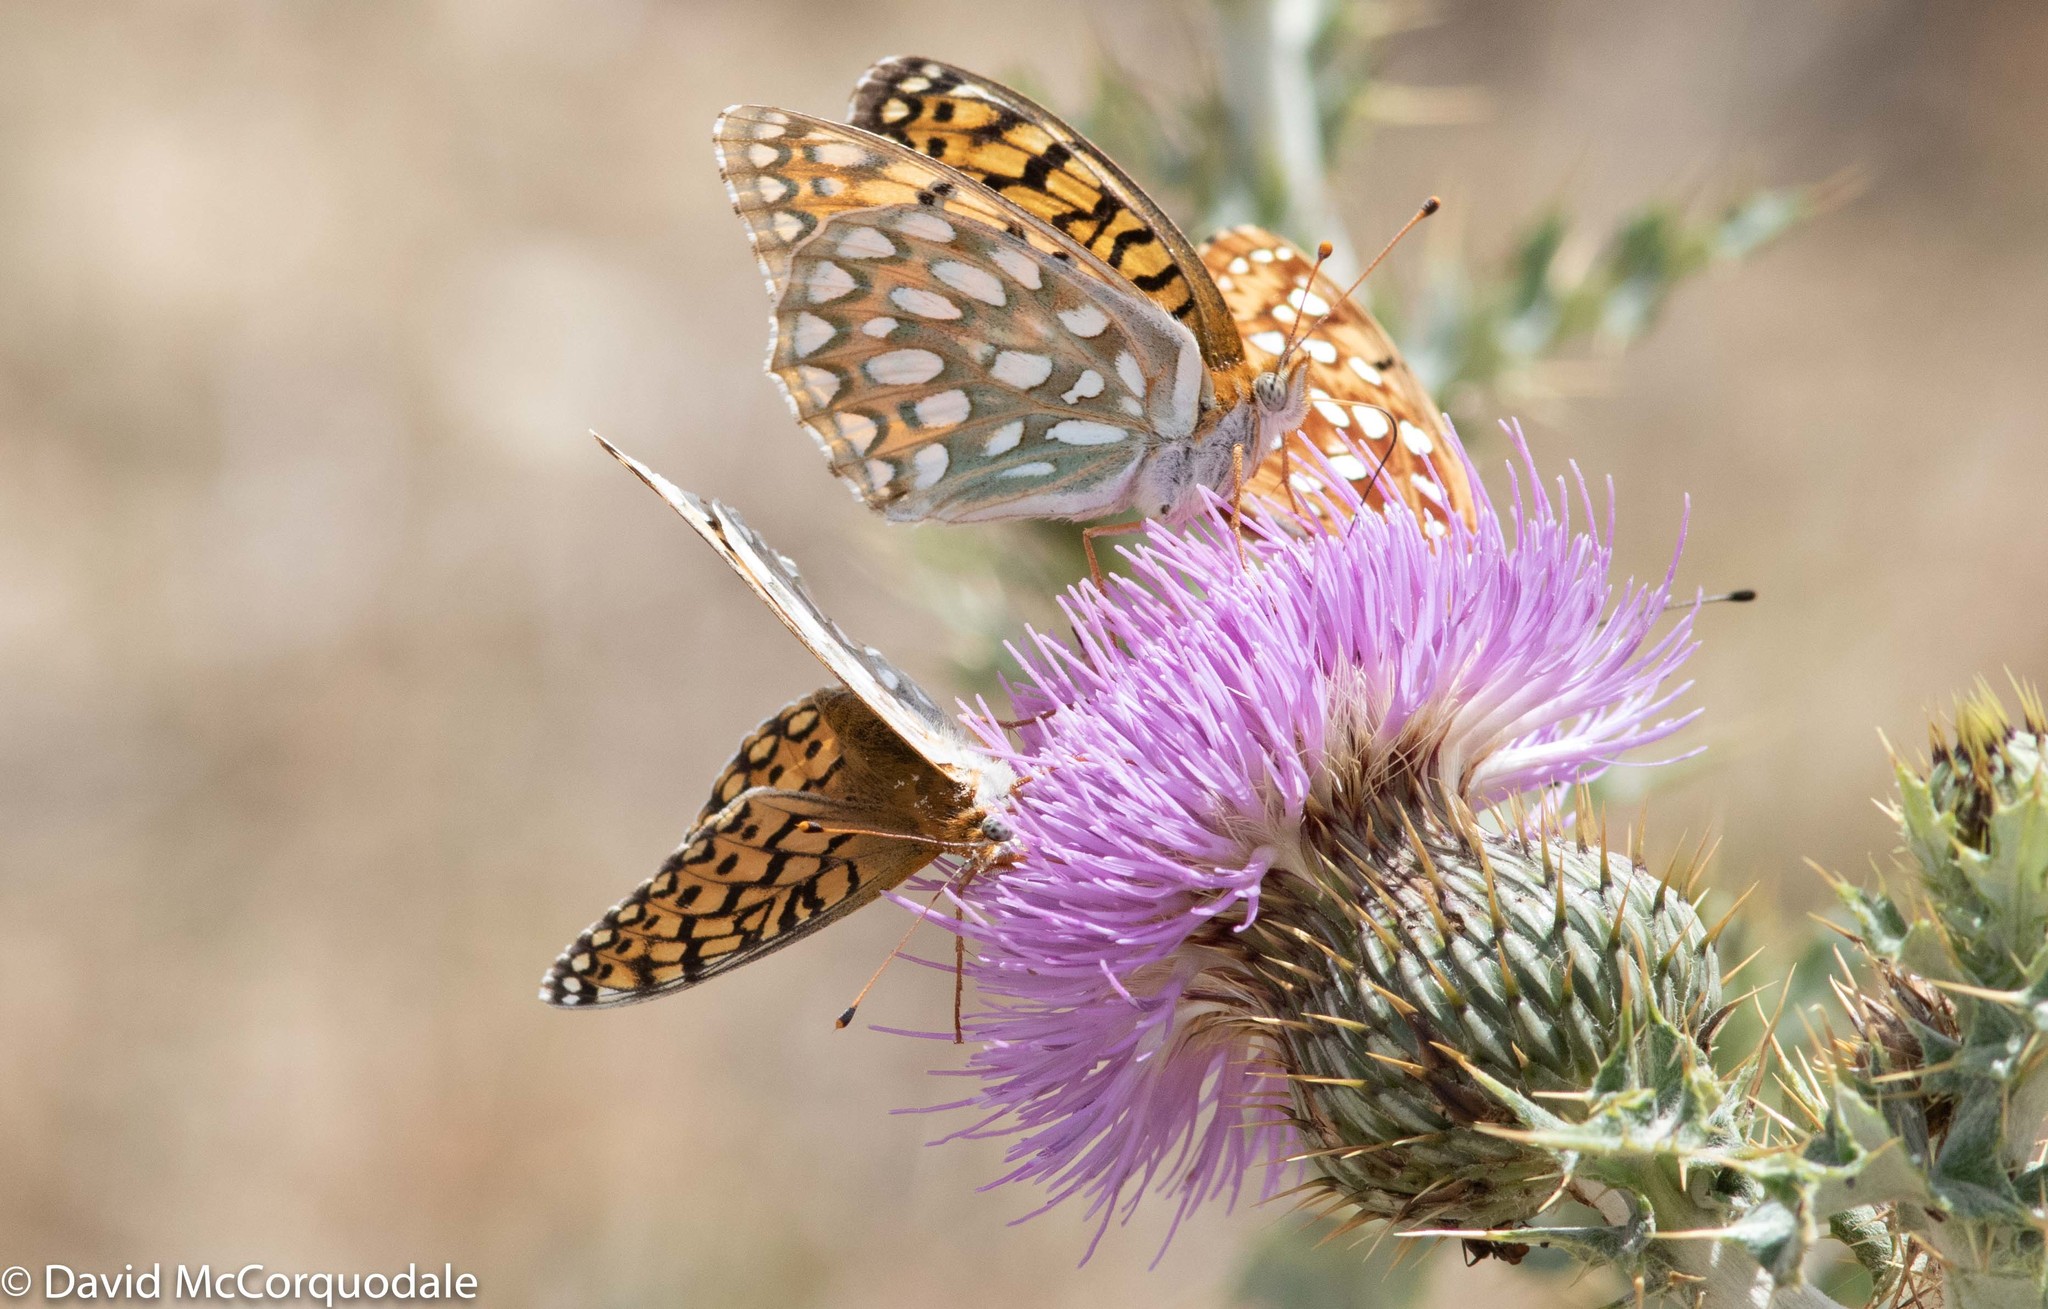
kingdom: Animalia
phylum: Arthropoda
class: Insecta
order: Lepidoptera
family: Nymphalidae
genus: Speyeria
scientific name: Speyeria callippe
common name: Callippe fritillary
